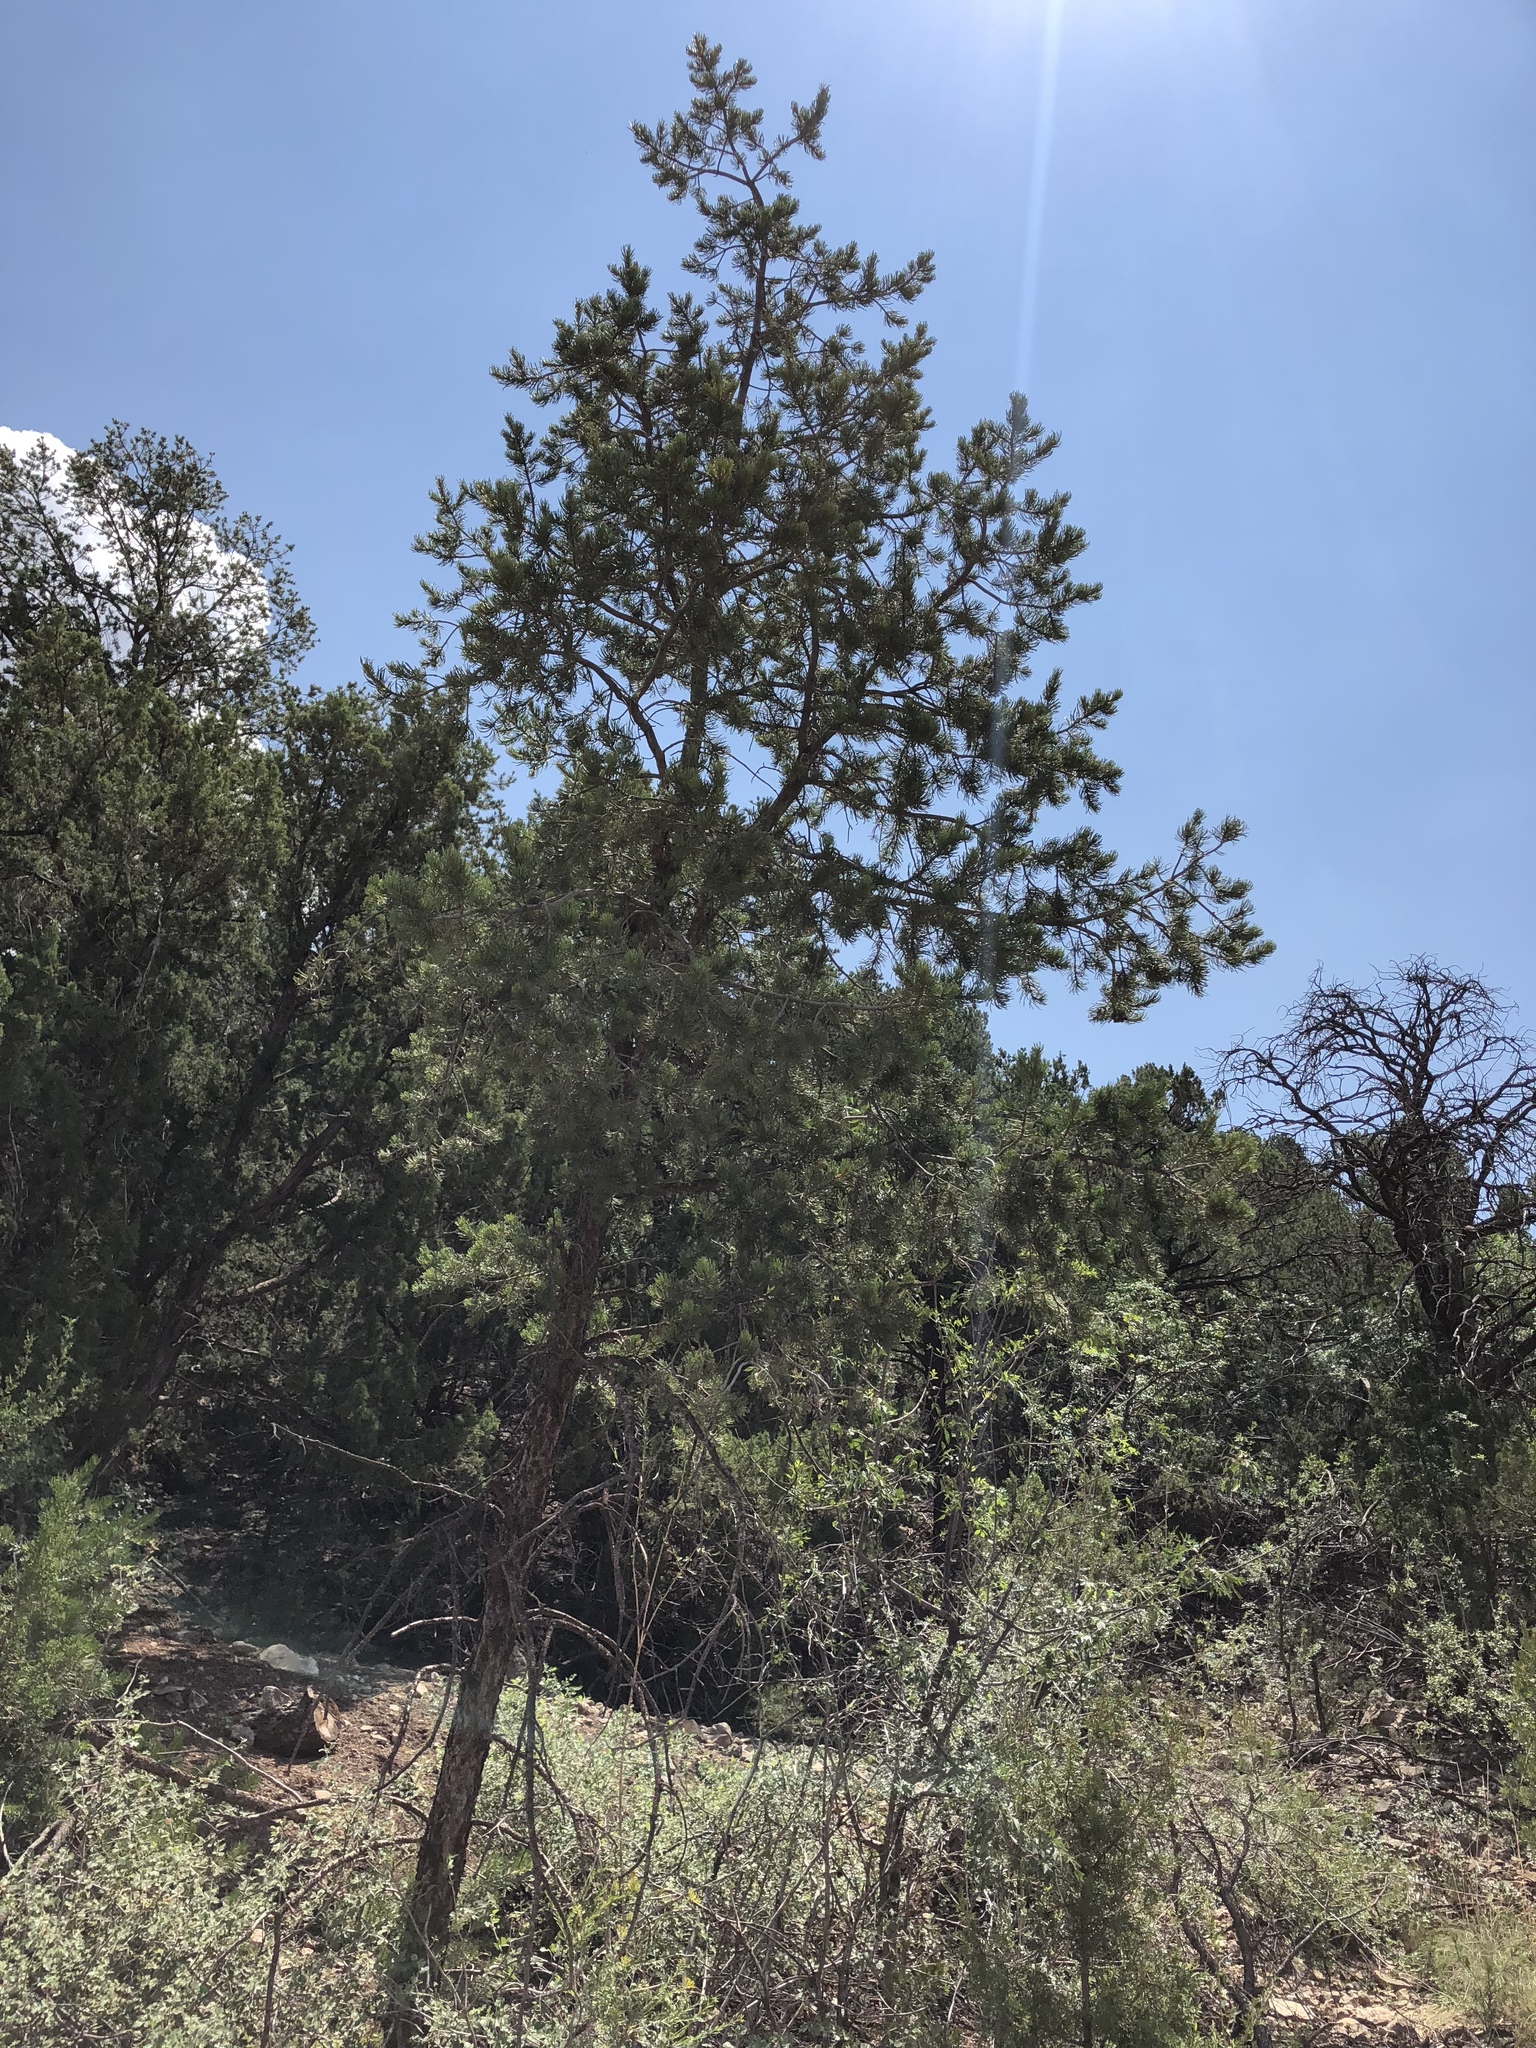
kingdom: Plantae
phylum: Tracheophyta
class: Pinopsida
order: Pinales
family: Pinaceae
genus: Pinus
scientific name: Pinus edulis
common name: Colorado pinyon
